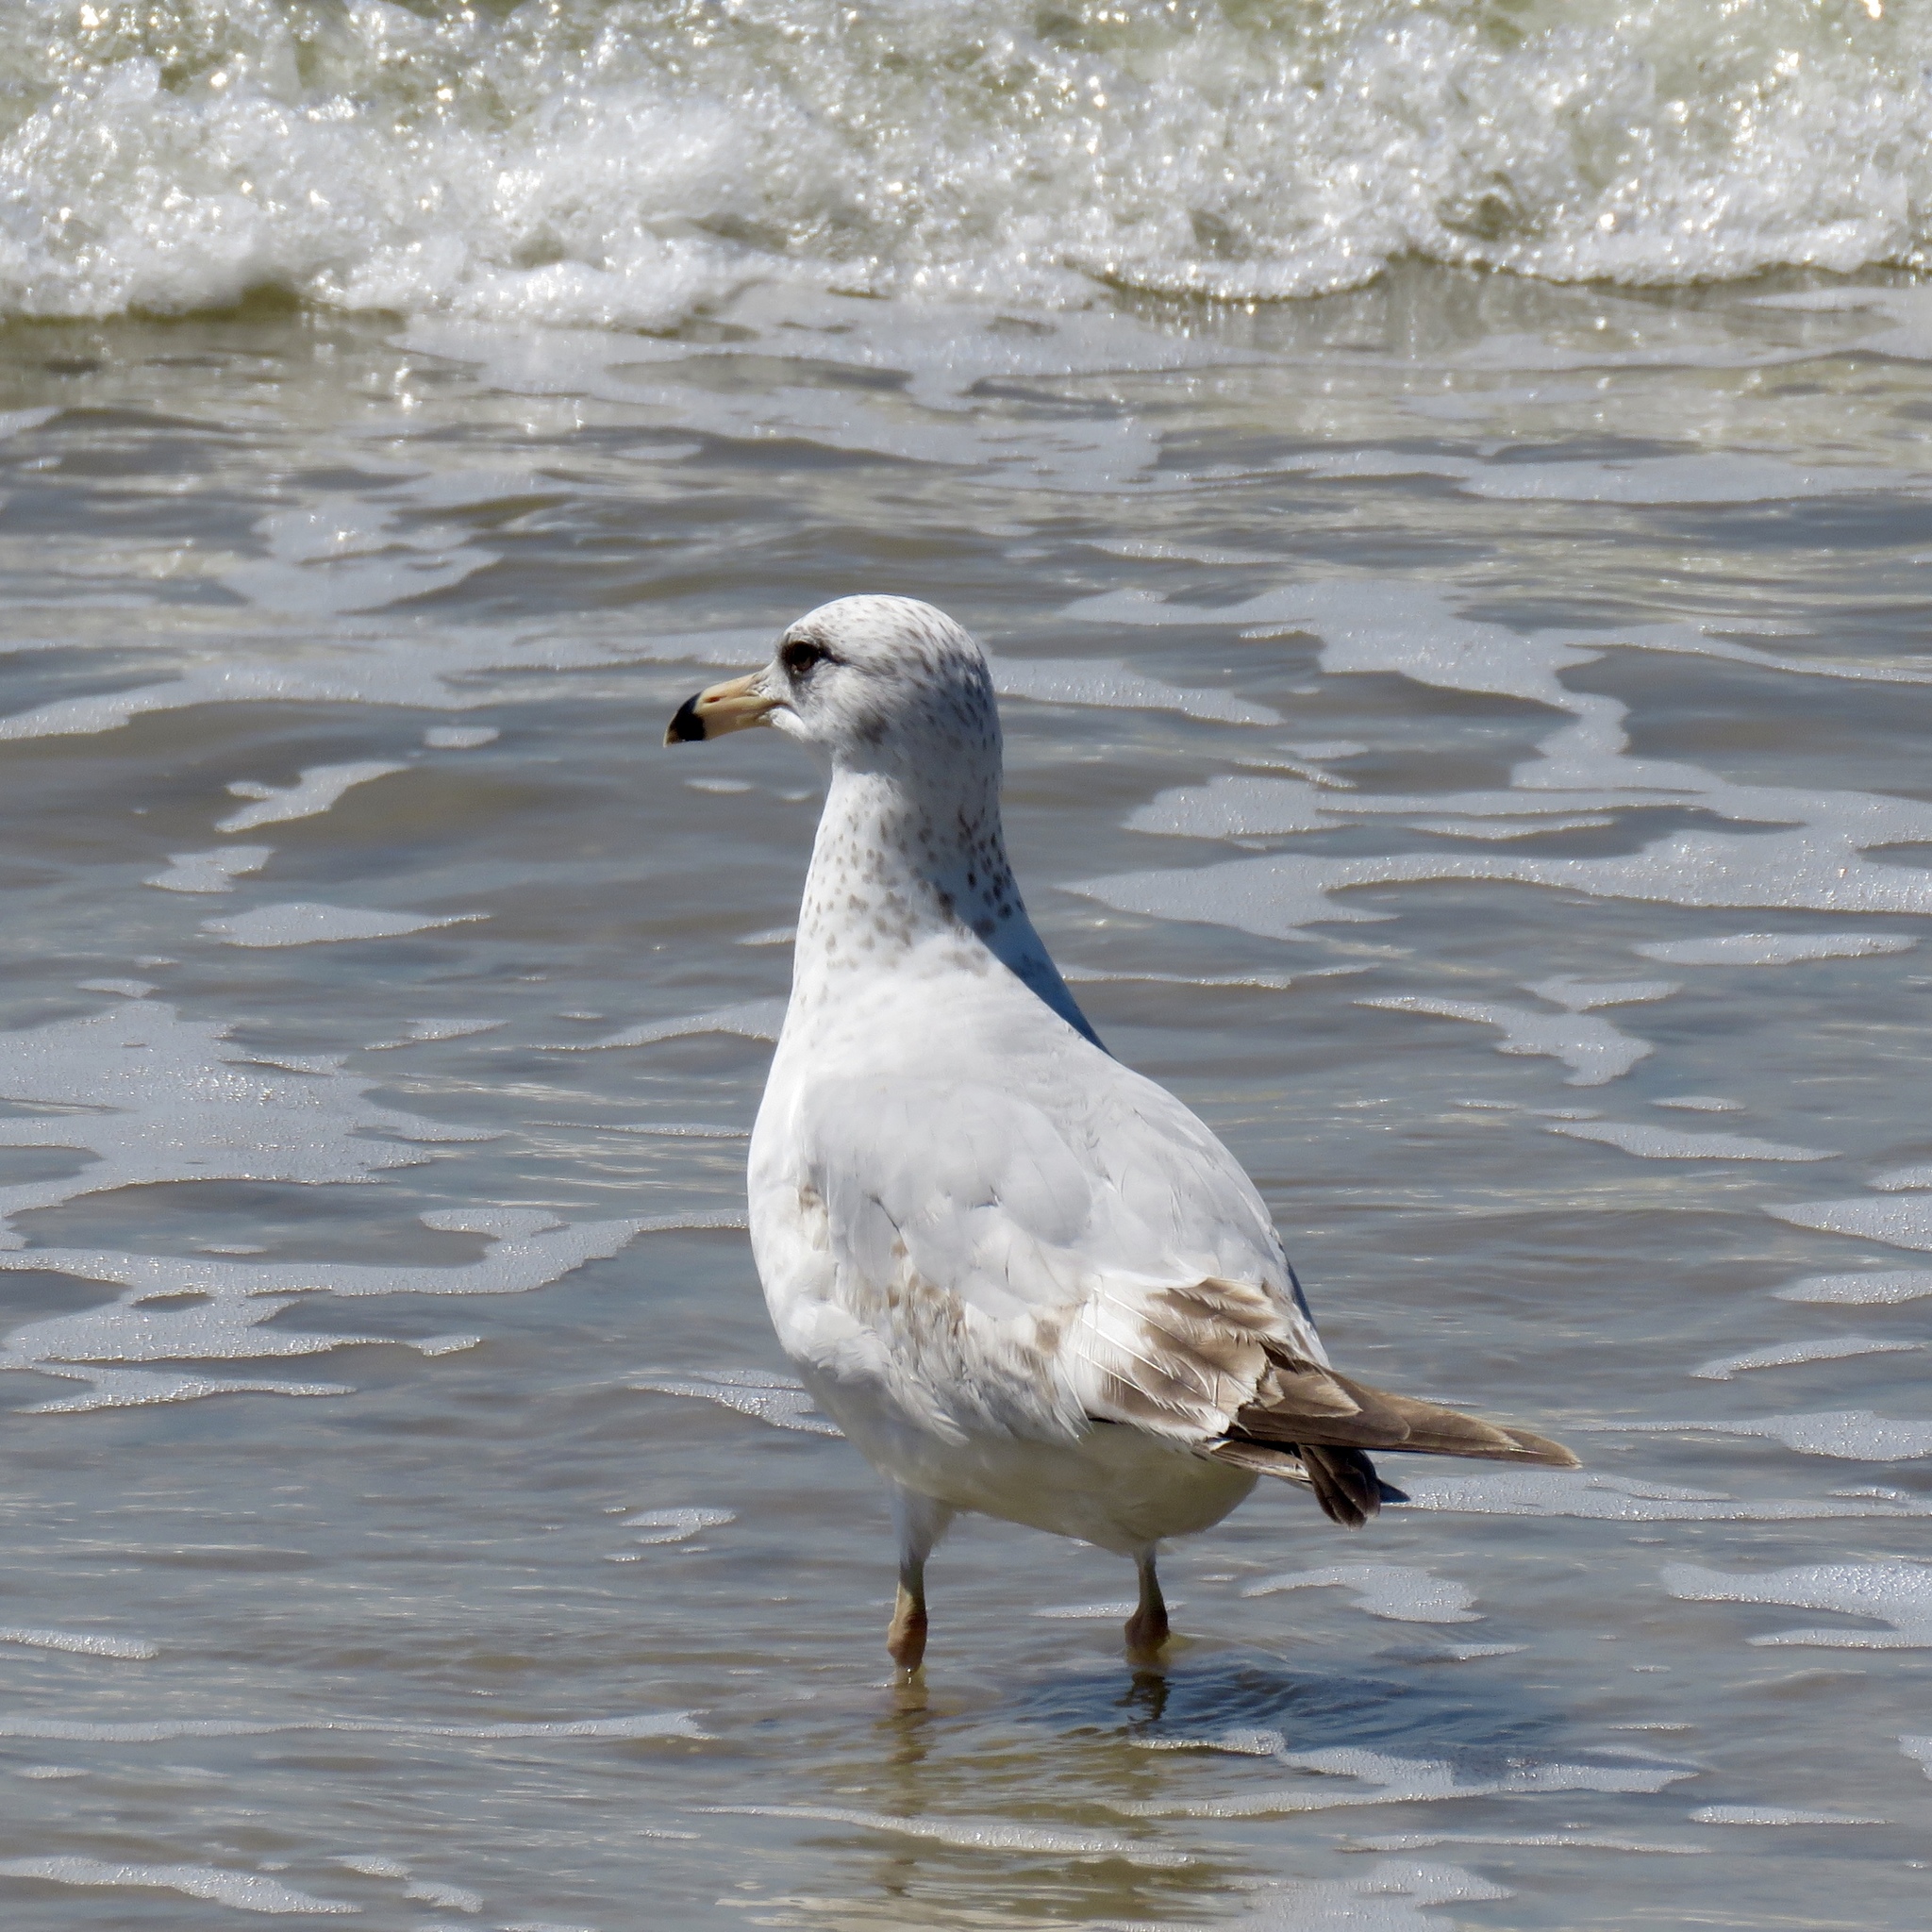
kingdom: Animalia
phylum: Chordata
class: Aves
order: Charadriiformes
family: Laridae
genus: Larus
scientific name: Larus delawarensis
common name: Ring-billed gull
